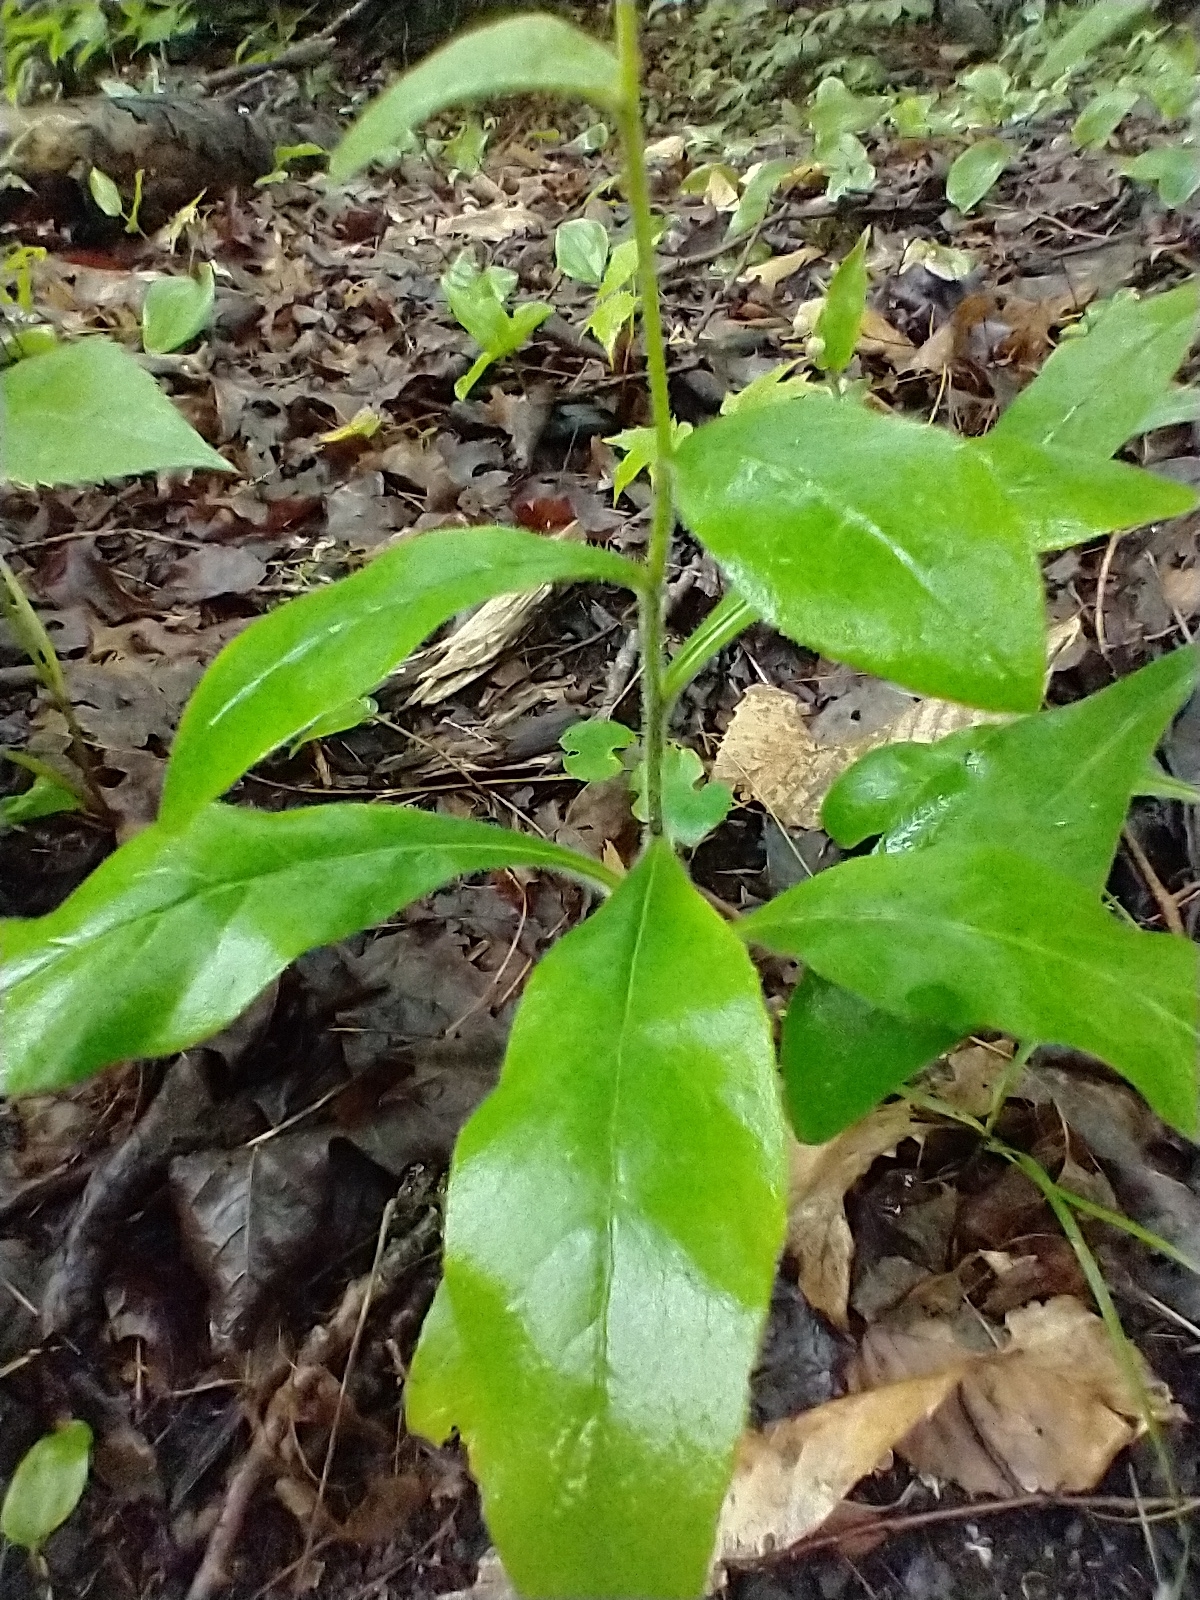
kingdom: Plantae
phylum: Tracheophyta
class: Magnoliopsida
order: Asterales
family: Asteraceae
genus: Hieracium
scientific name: Hieracium scabrum
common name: Rough hawkweed
